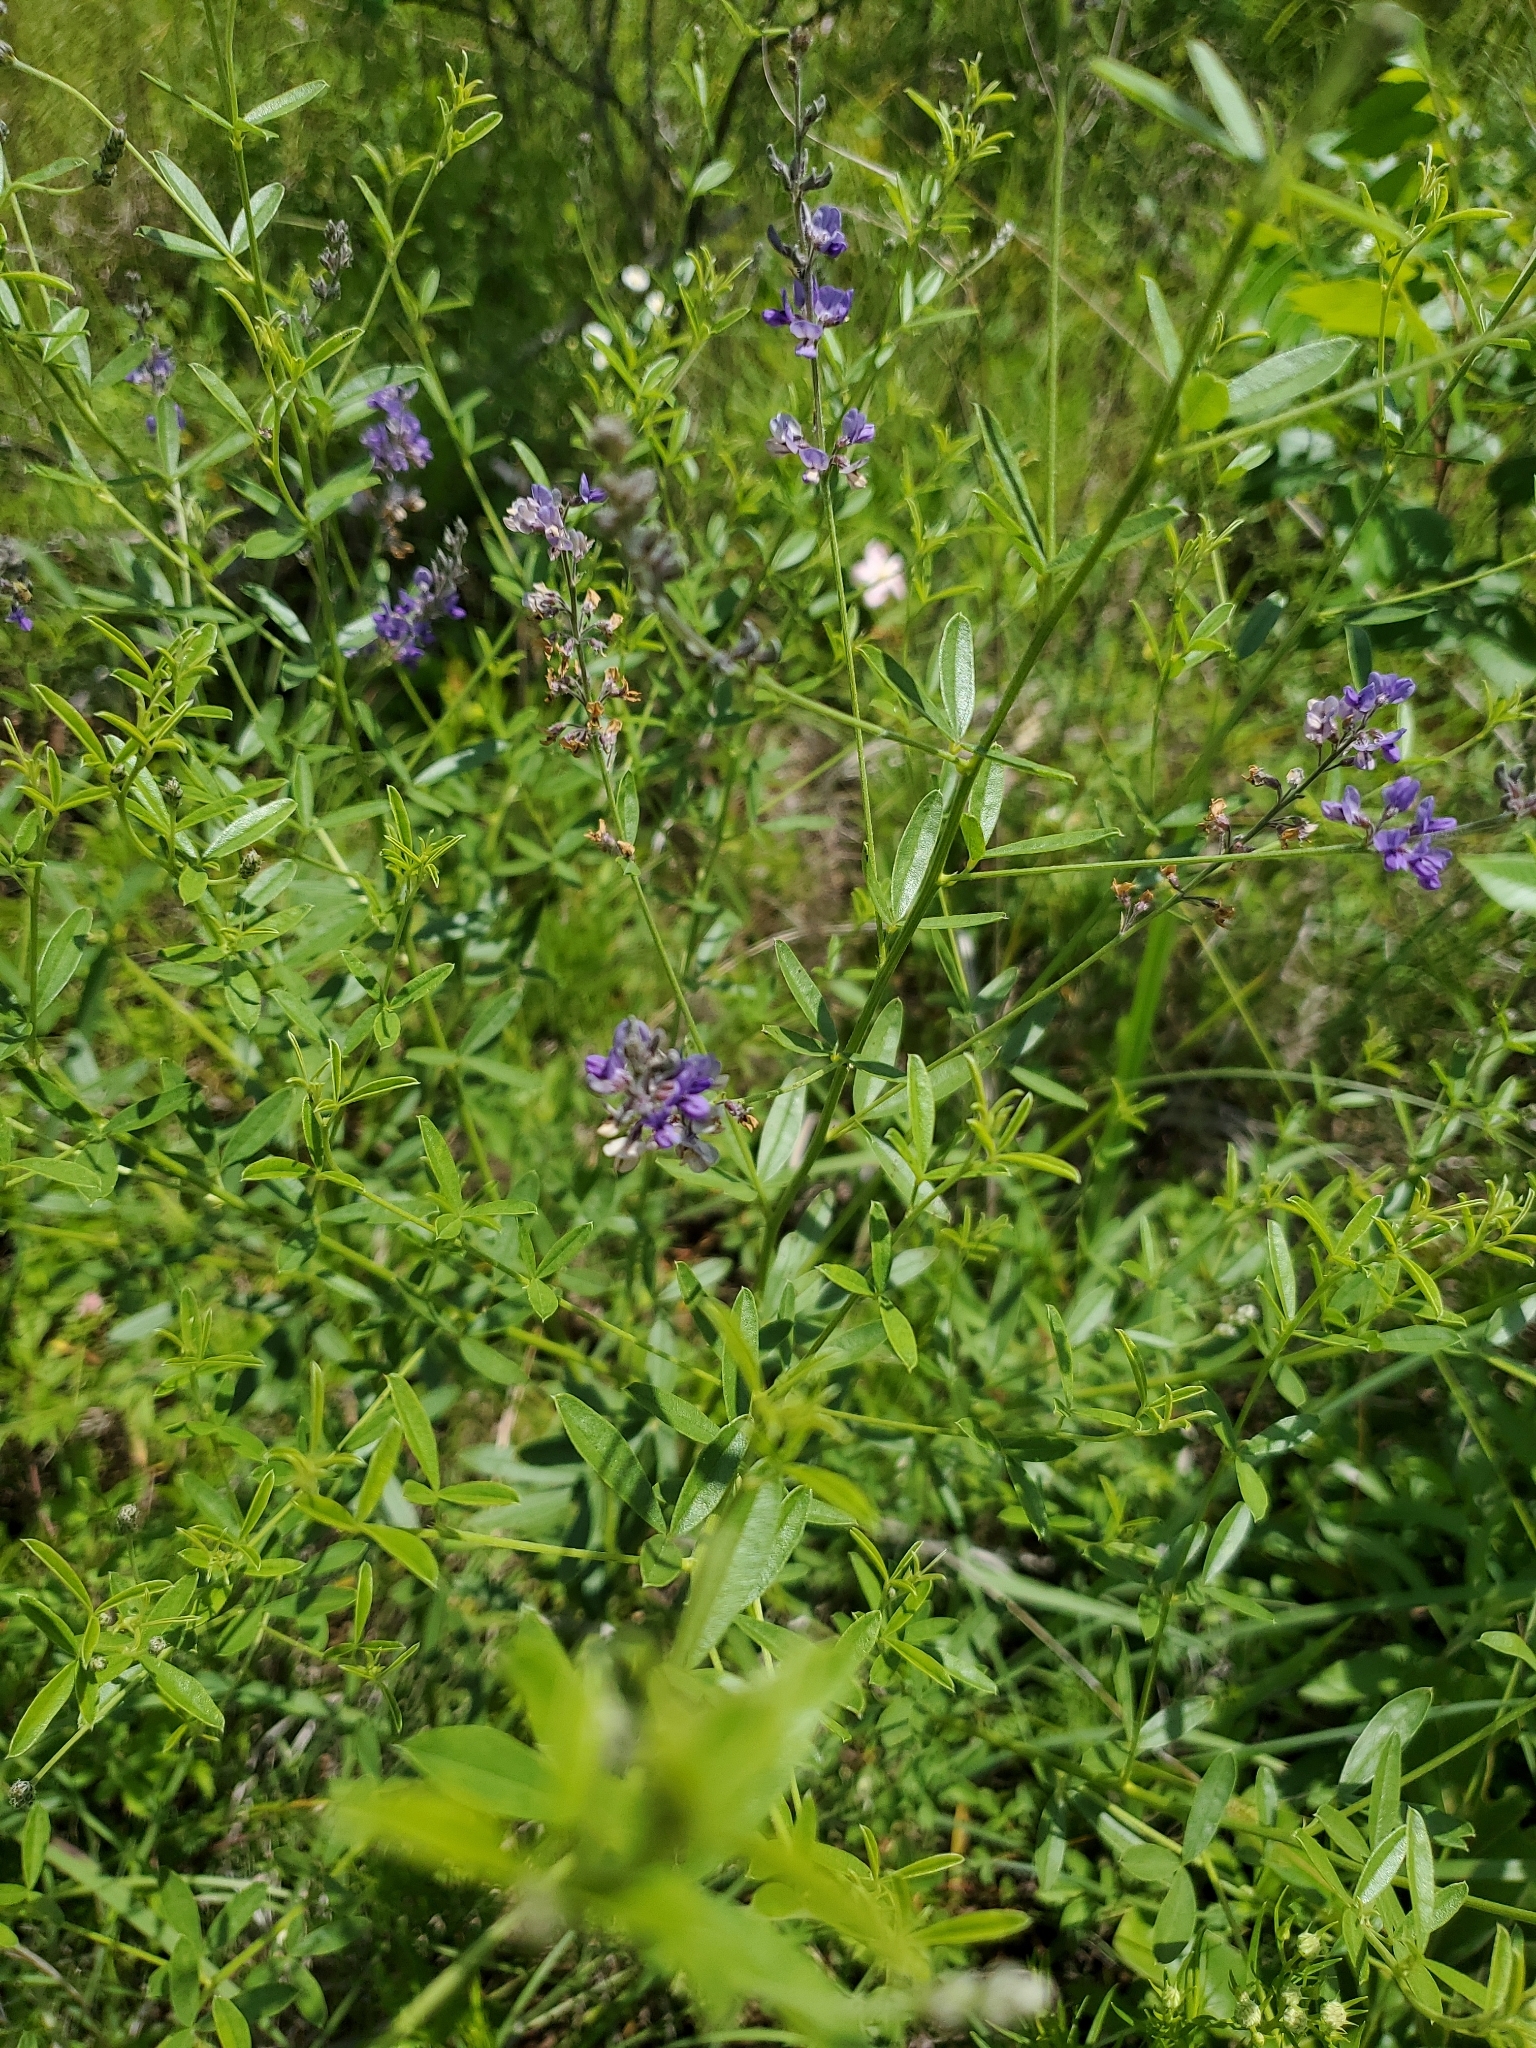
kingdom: Plantae
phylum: Tracheophyta
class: Magnoliopsida
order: Fabales
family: Fabaceae
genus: Pediomelum
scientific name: Pediomelum tenuiflorum
